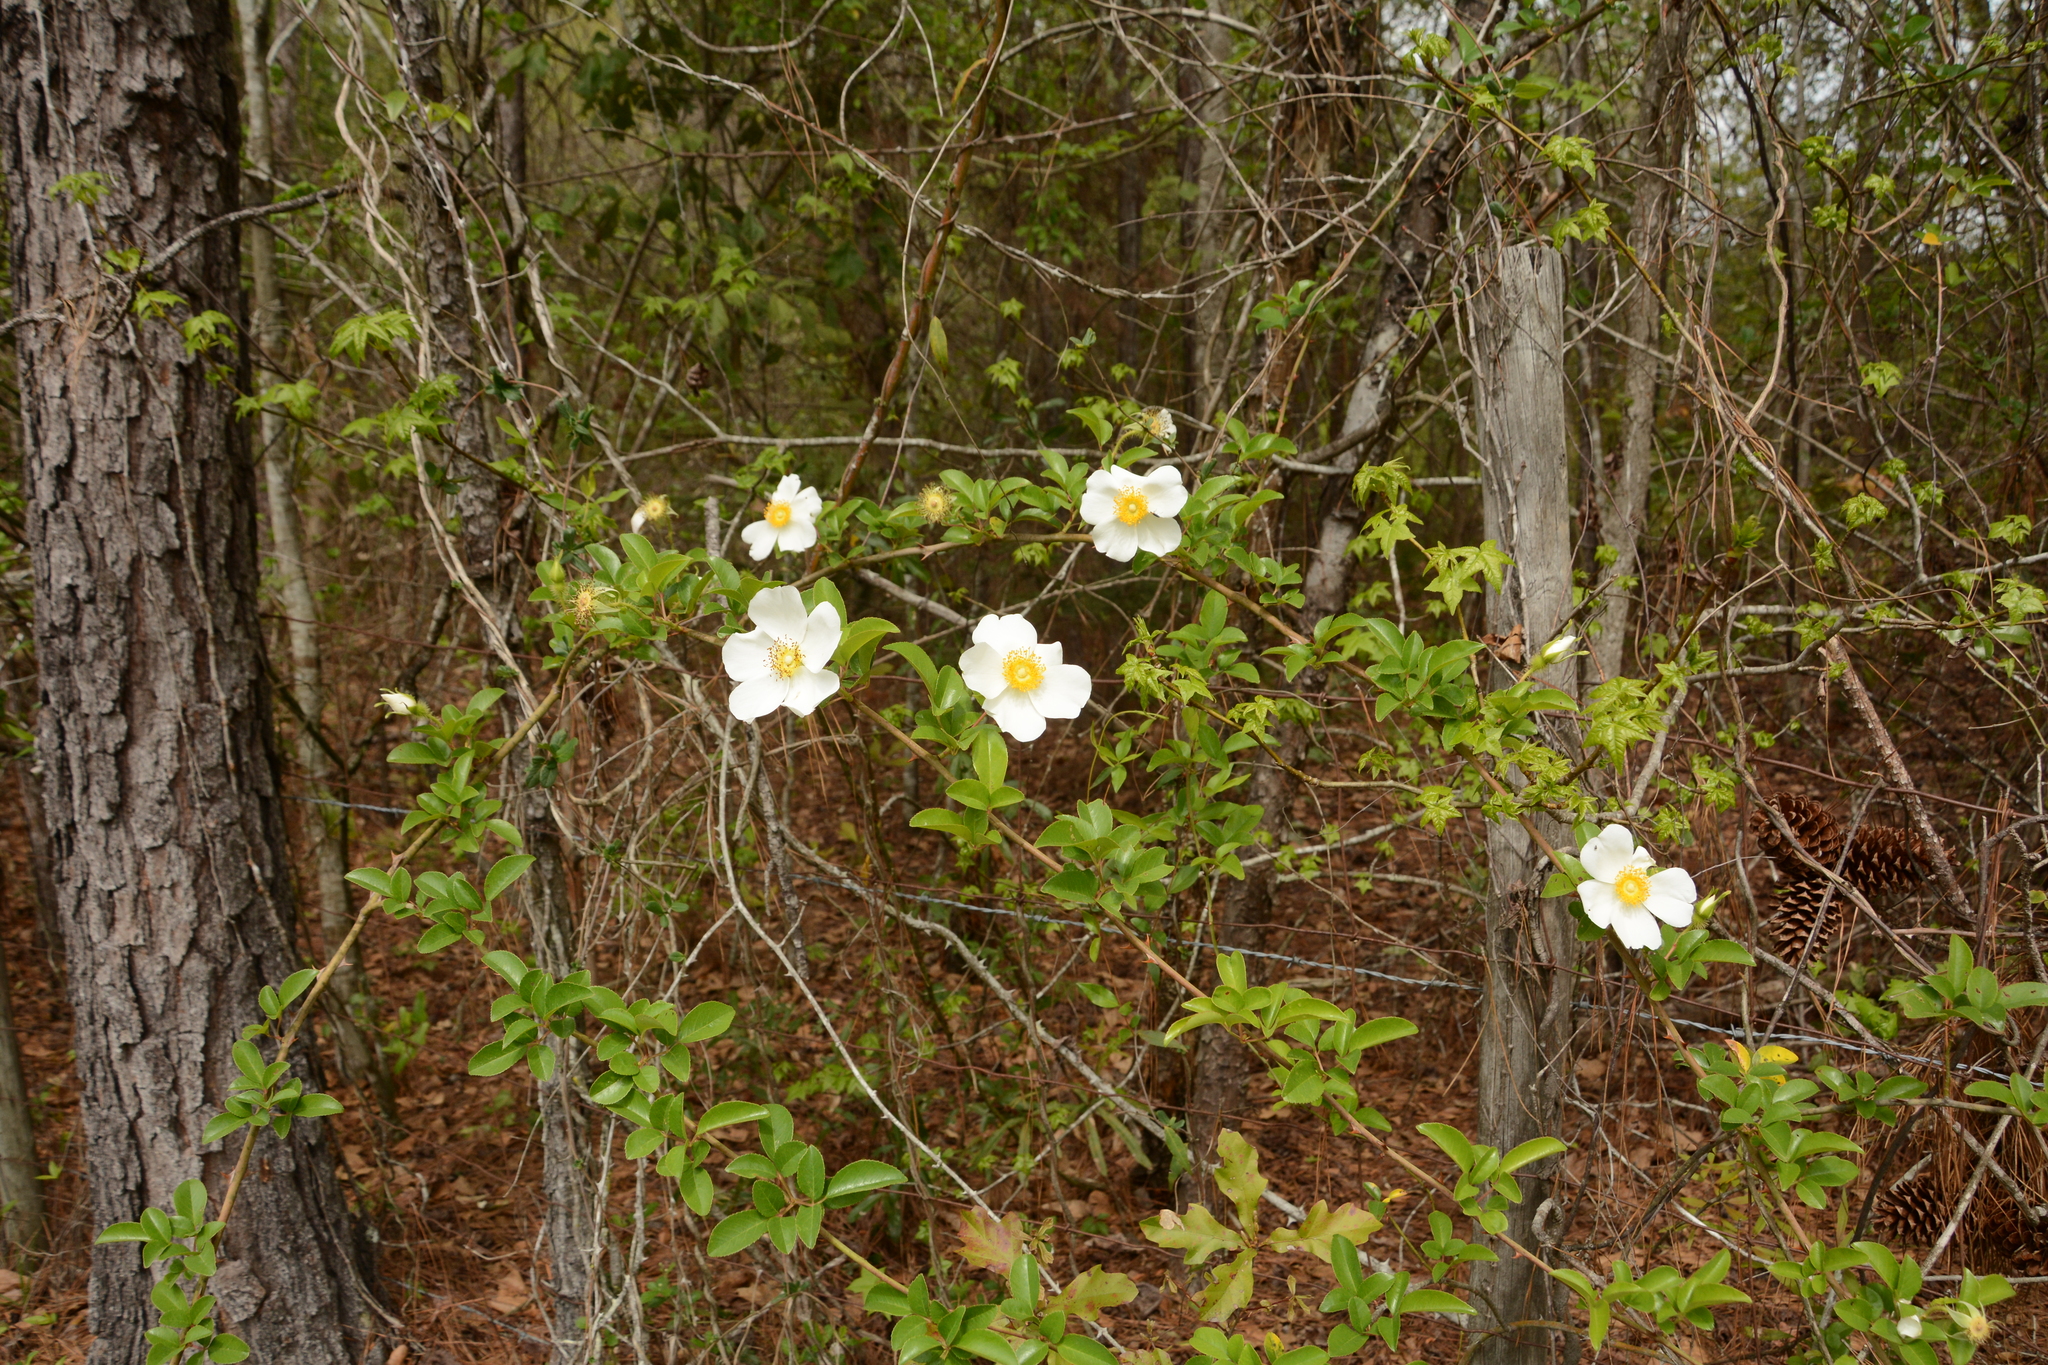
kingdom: Plantae
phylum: Tracheophyta
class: Magnoliopsida
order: Rosales
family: Rosaceae
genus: Rosa
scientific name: Rosa laevigata
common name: Cherokee rose
